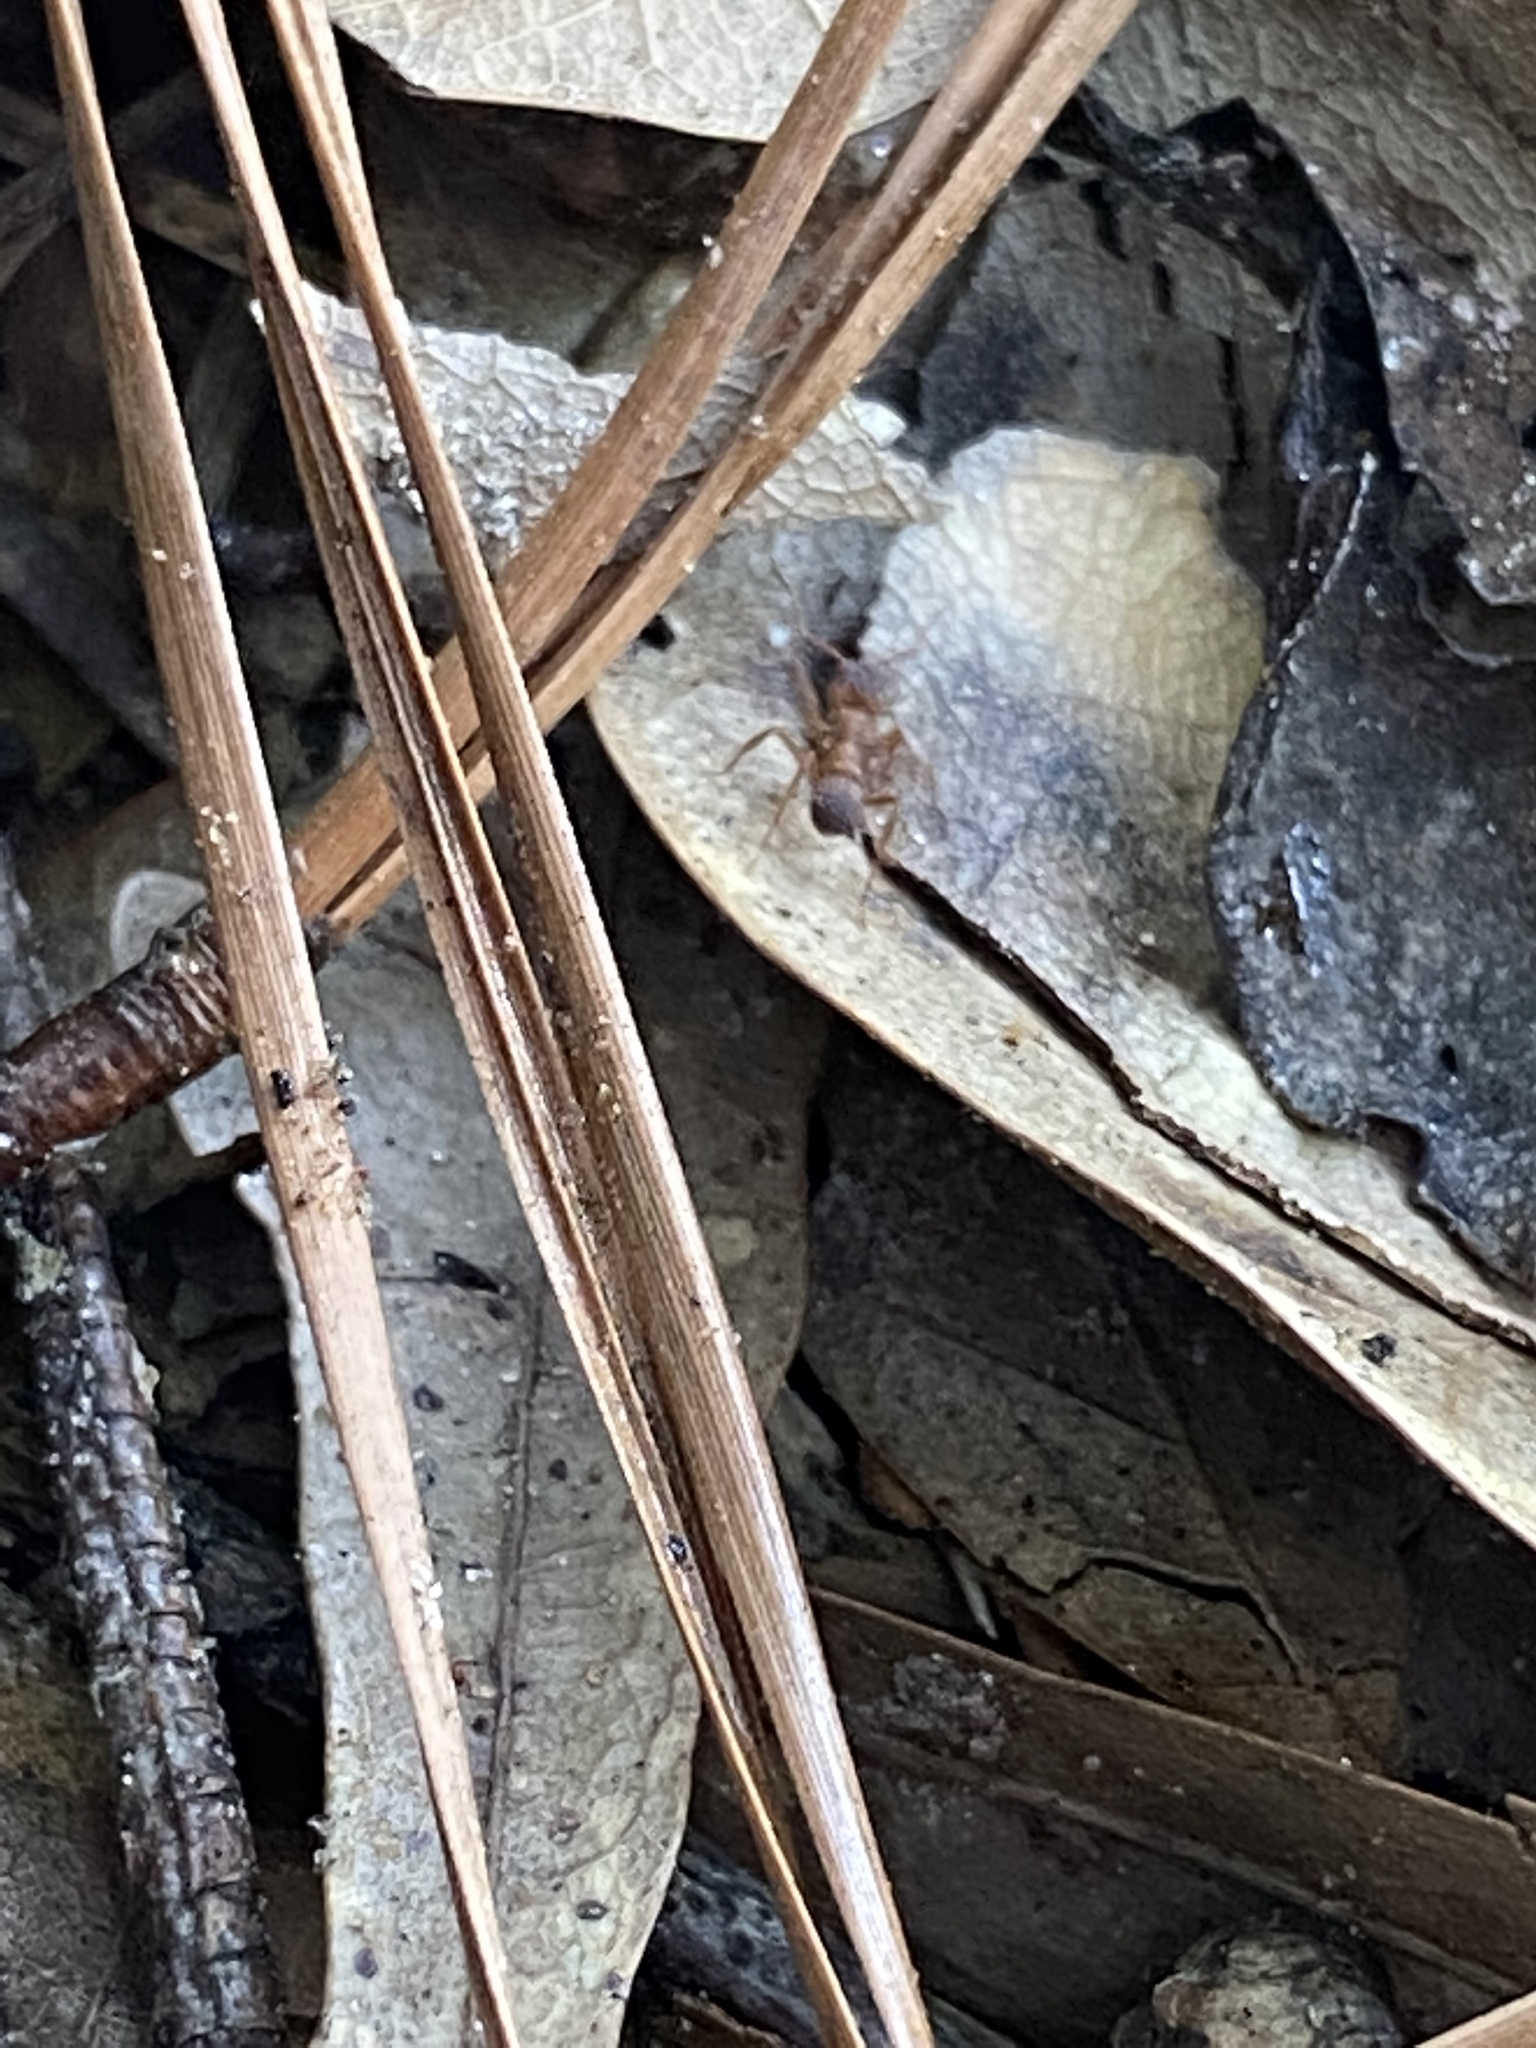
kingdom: Animalia
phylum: Arthropoda
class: Insecta
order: Hymenoptera
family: Formicidae
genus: Trachymyrmex
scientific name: Trachymyrmex septentrionalis
